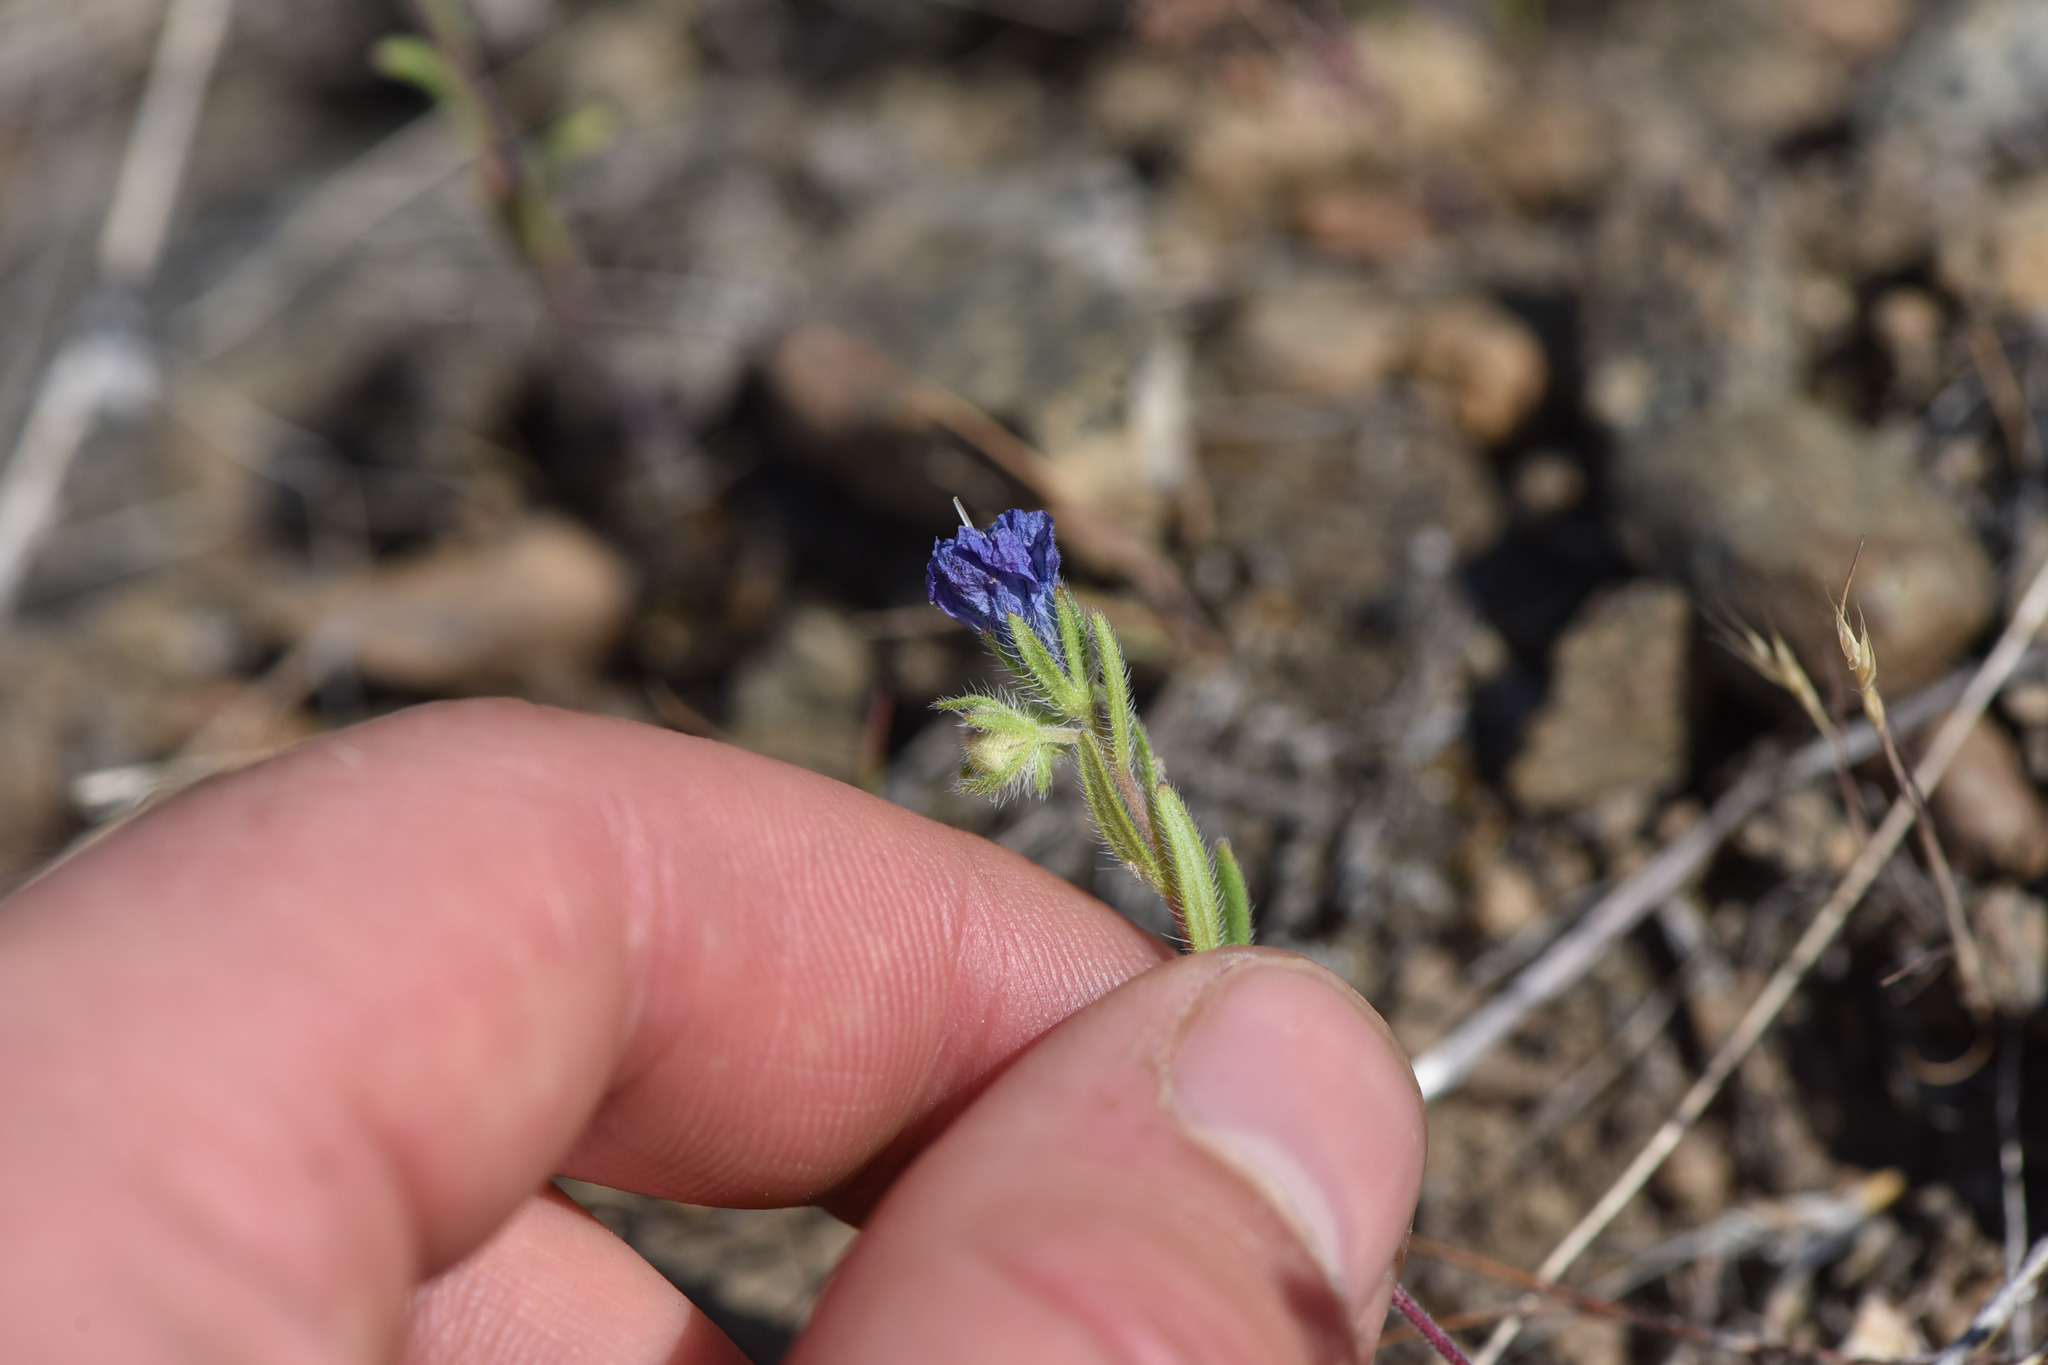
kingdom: Plantae
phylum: Tracheophyta
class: Magnoliopsida
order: Boraginales
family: Hydrophyllaceae
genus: Phacelia
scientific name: Phacelia linearis
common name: Linear-leaved phacelia
